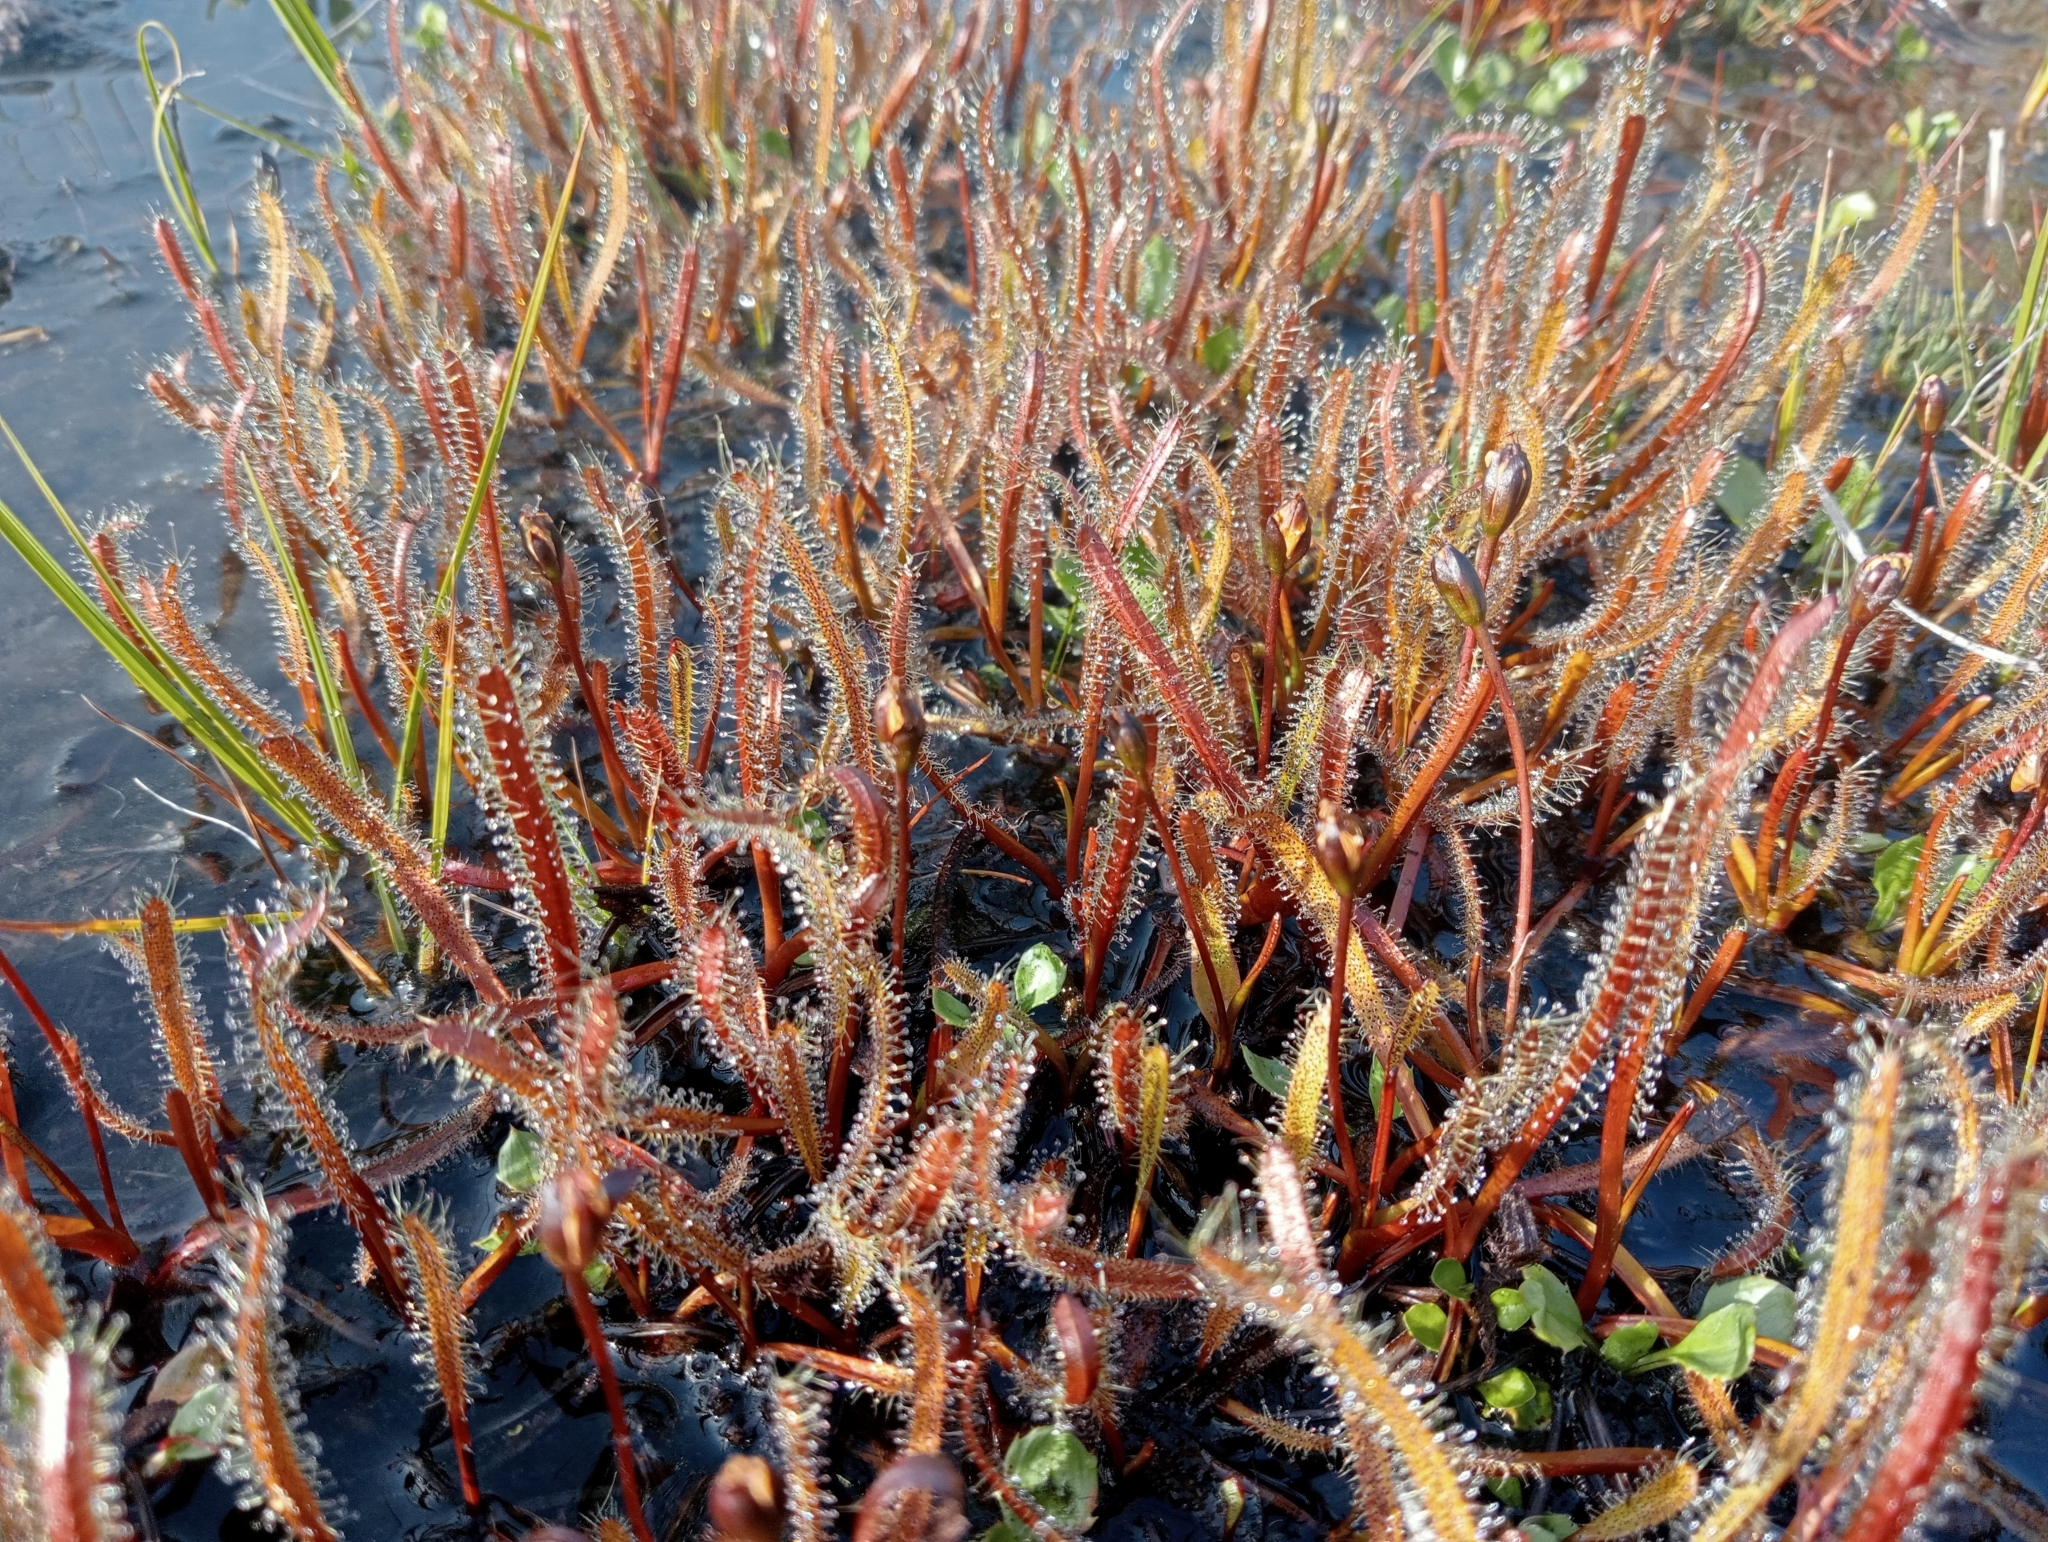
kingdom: Plantae
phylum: Tracheophyta
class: Magnoliopsida
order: Caryophyllales
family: Droseraceae
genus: Drosera
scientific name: Drosera arcturi
